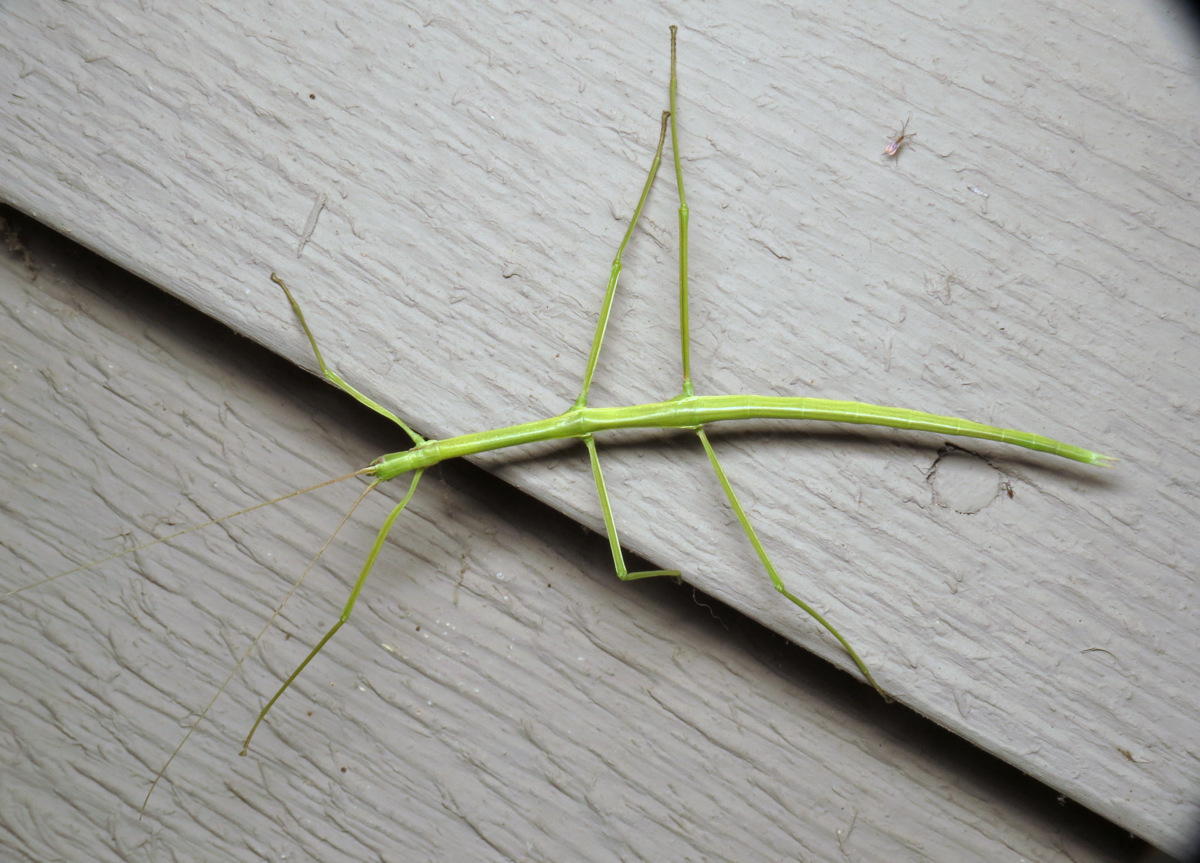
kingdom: Animalia
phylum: Arthropoda
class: Insecta
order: Phasmida
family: Diapheromeridae
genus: Diapheromera
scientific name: Diapheromera femorata
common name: Common american walkingstick
